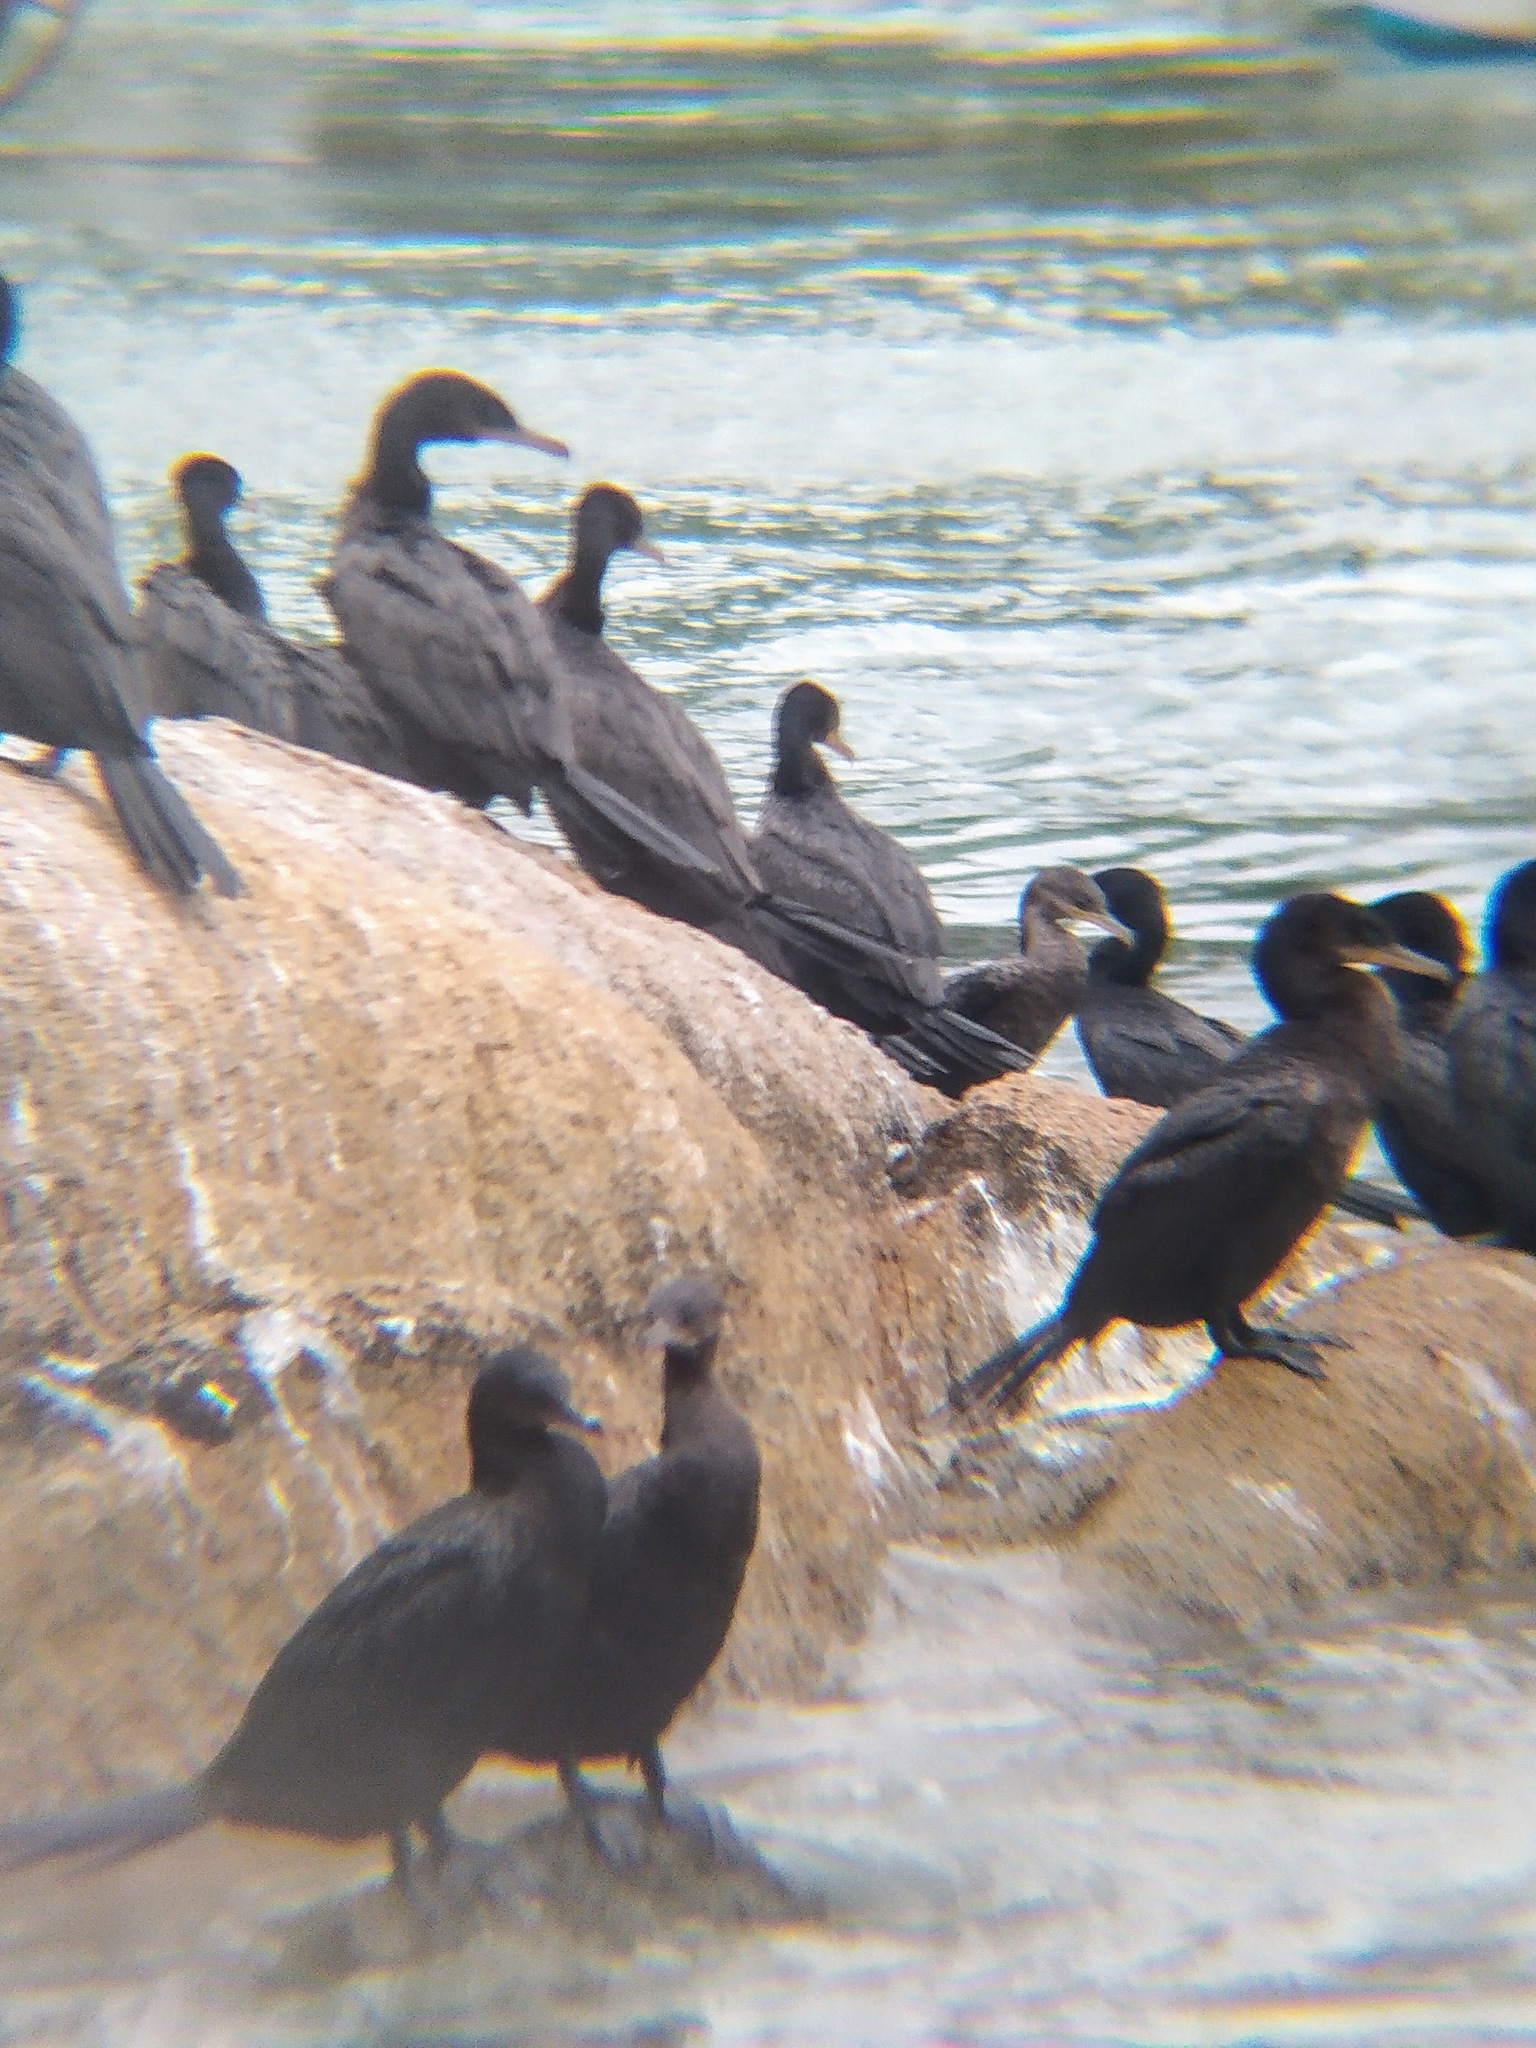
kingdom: Animalia
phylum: Chordata
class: Aves
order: Suliformes
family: Phalacrocoracidae
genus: Phalacrocorax
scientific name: Phalacrocorax brasilianus
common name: Neotropic cormorant
